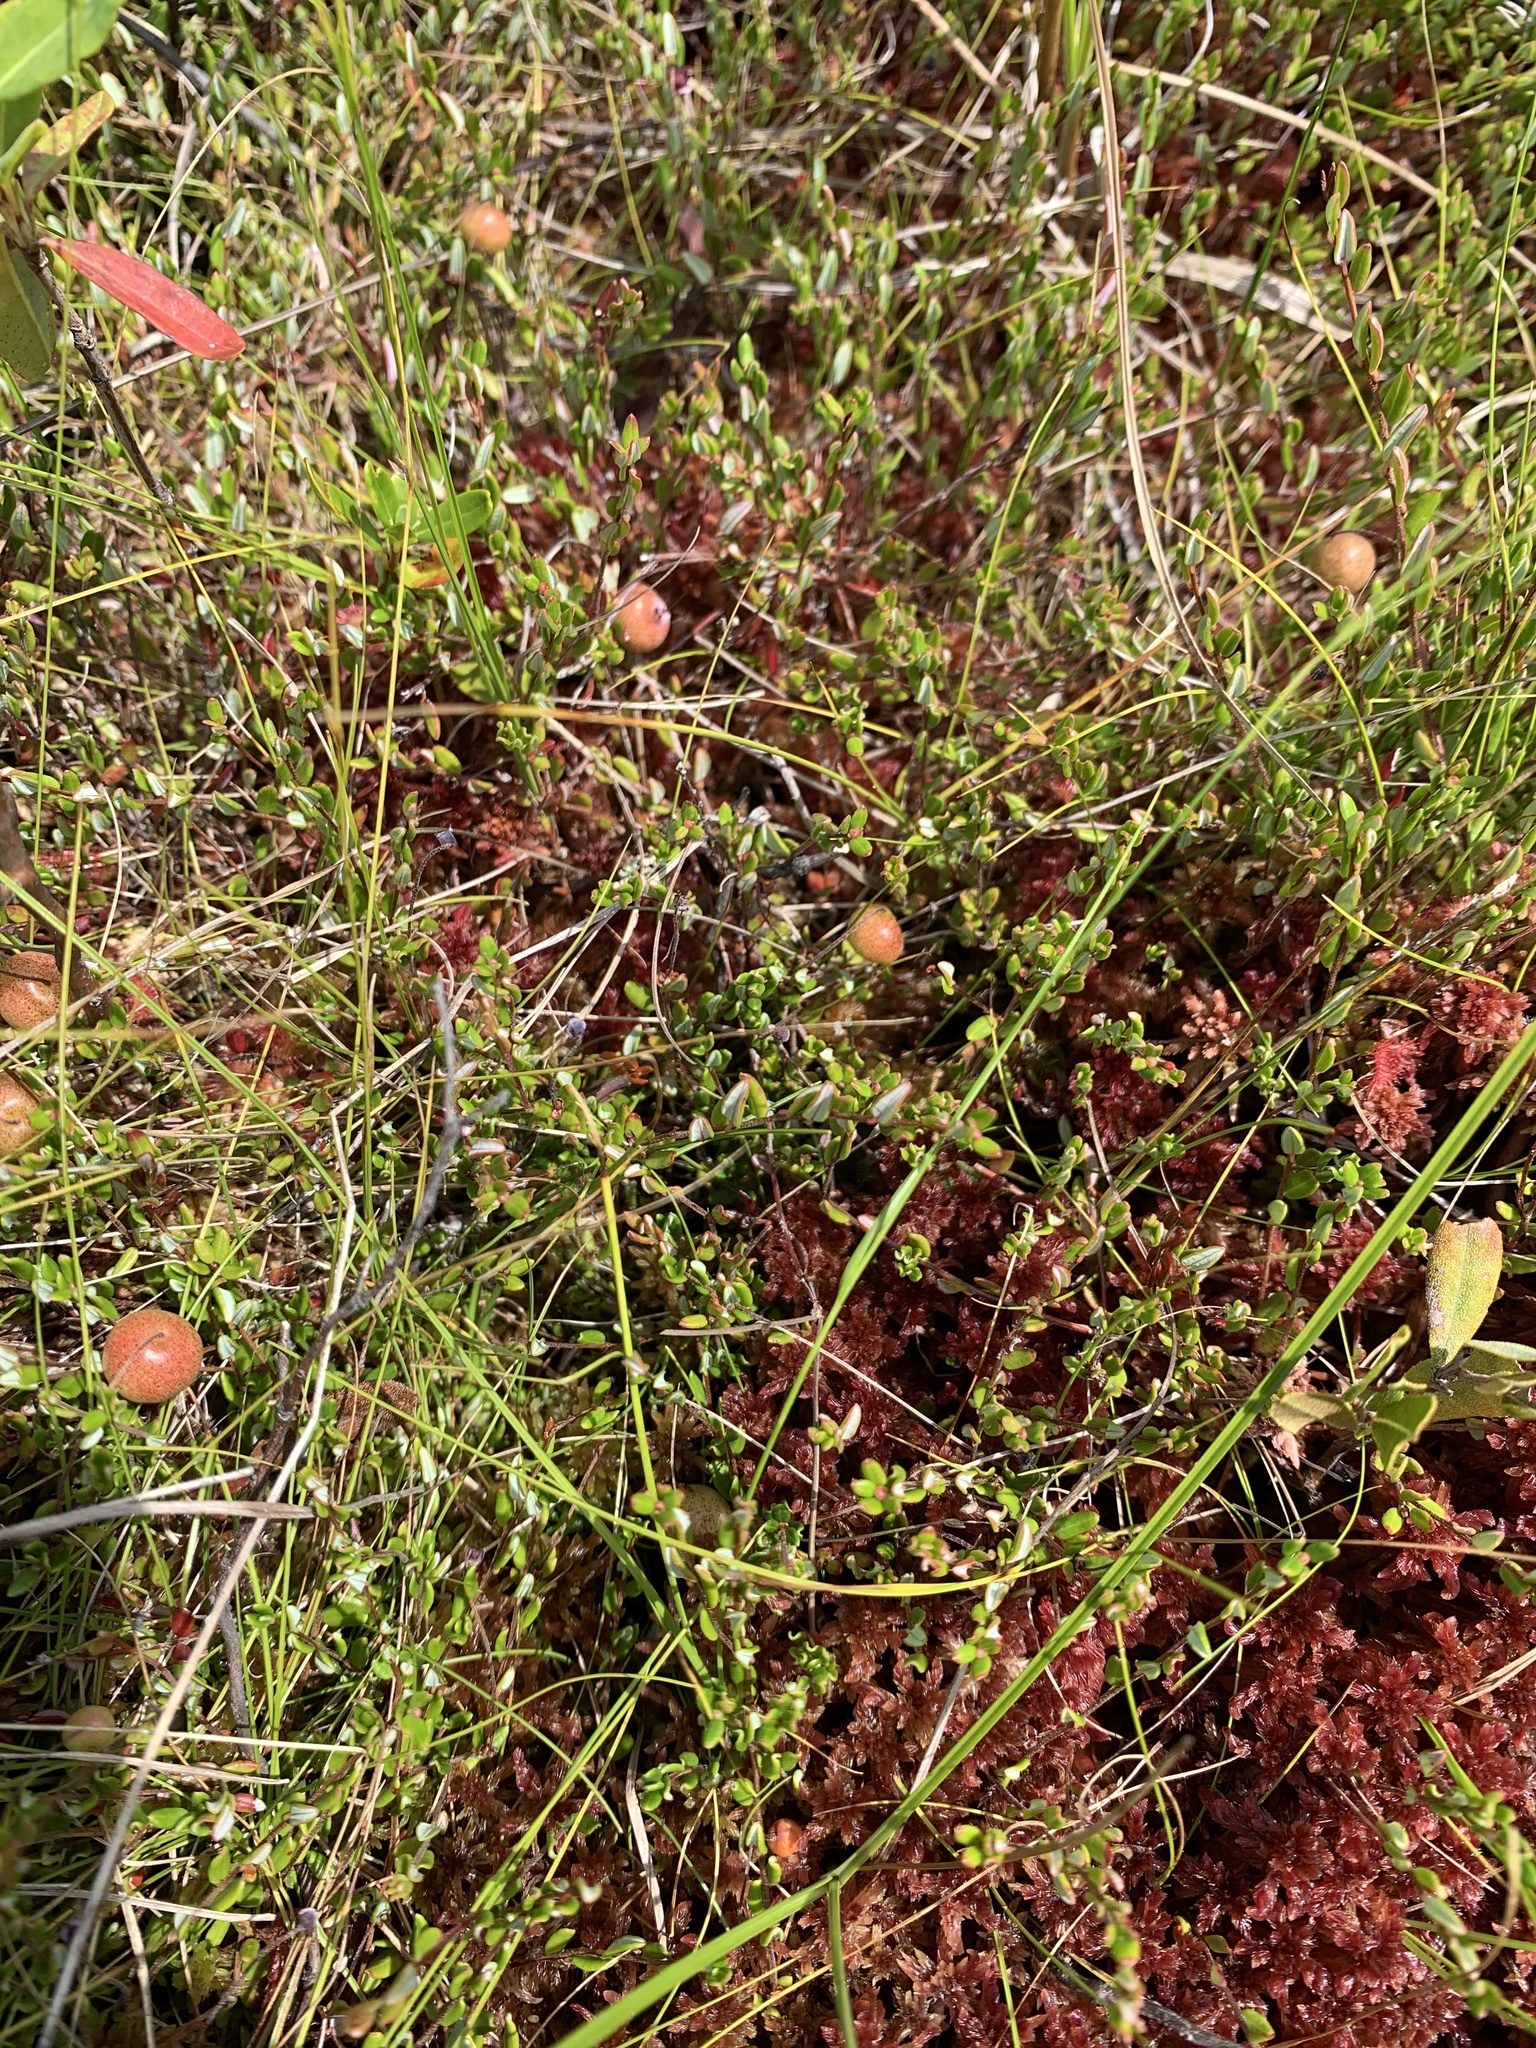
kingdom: Plantae
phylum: Tracheophyta
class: Magnoliopsida
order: Ericales
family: Ericaceae
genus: Vaccinium
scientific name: Vaccinium oxycoccos
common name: Cranberry
